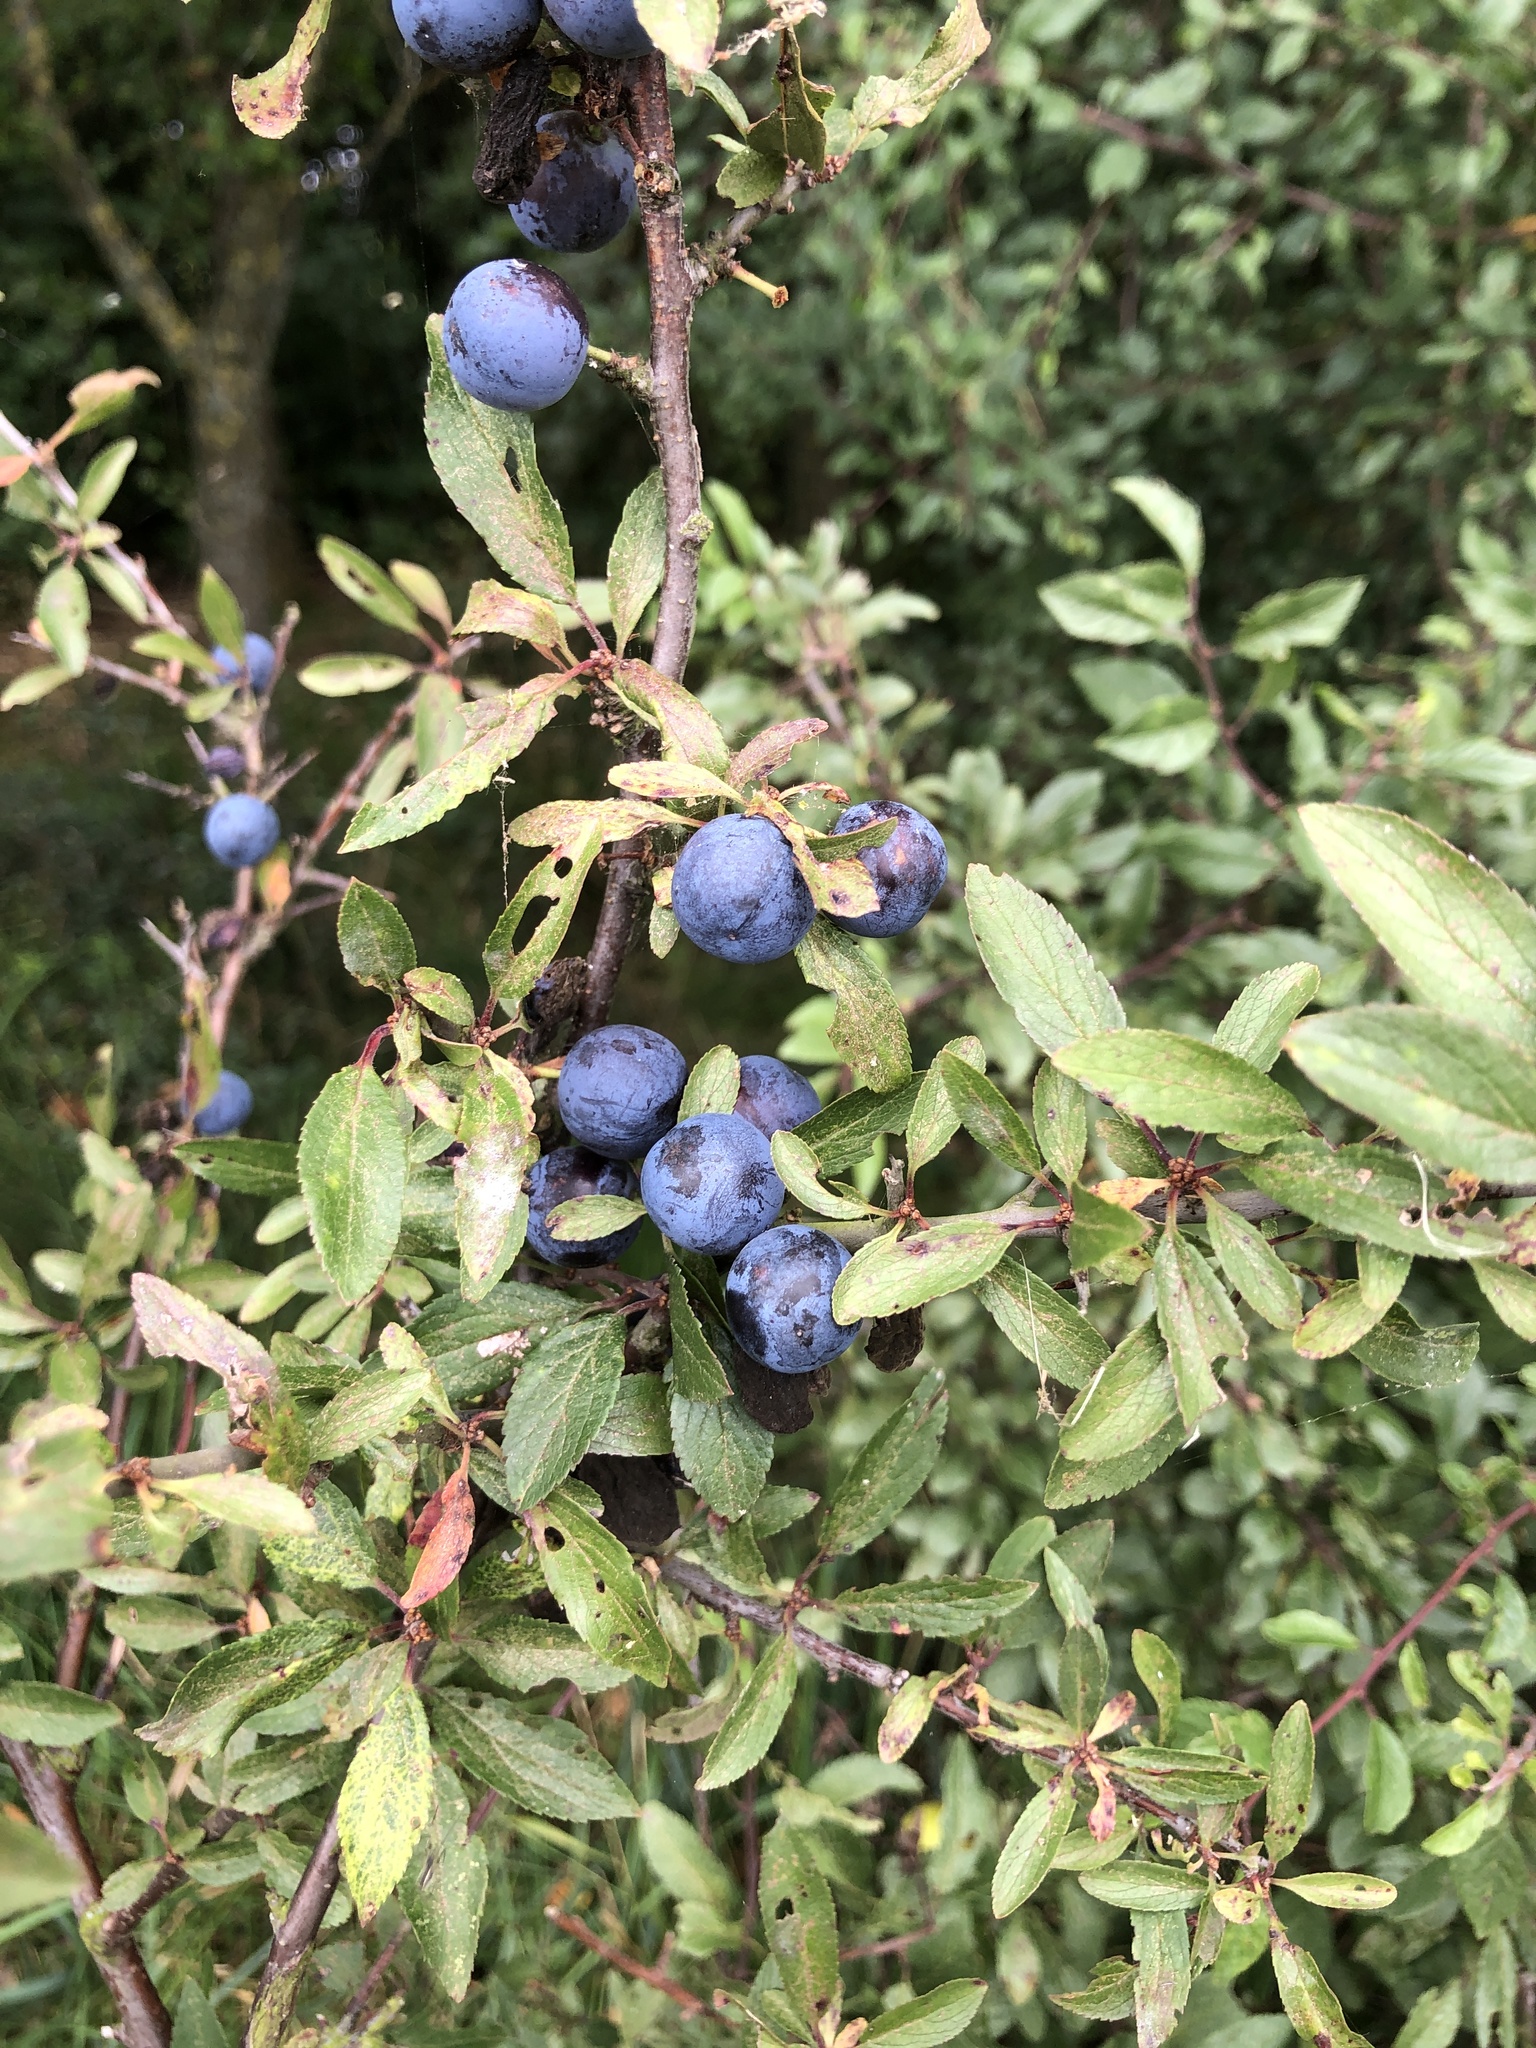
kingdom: Plantae
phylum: Tracheophyta
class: Magnoliopsida
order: Rosales
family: Rosaceae
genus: Prunus
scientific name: Prunus spinosa
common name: Blackthorn
